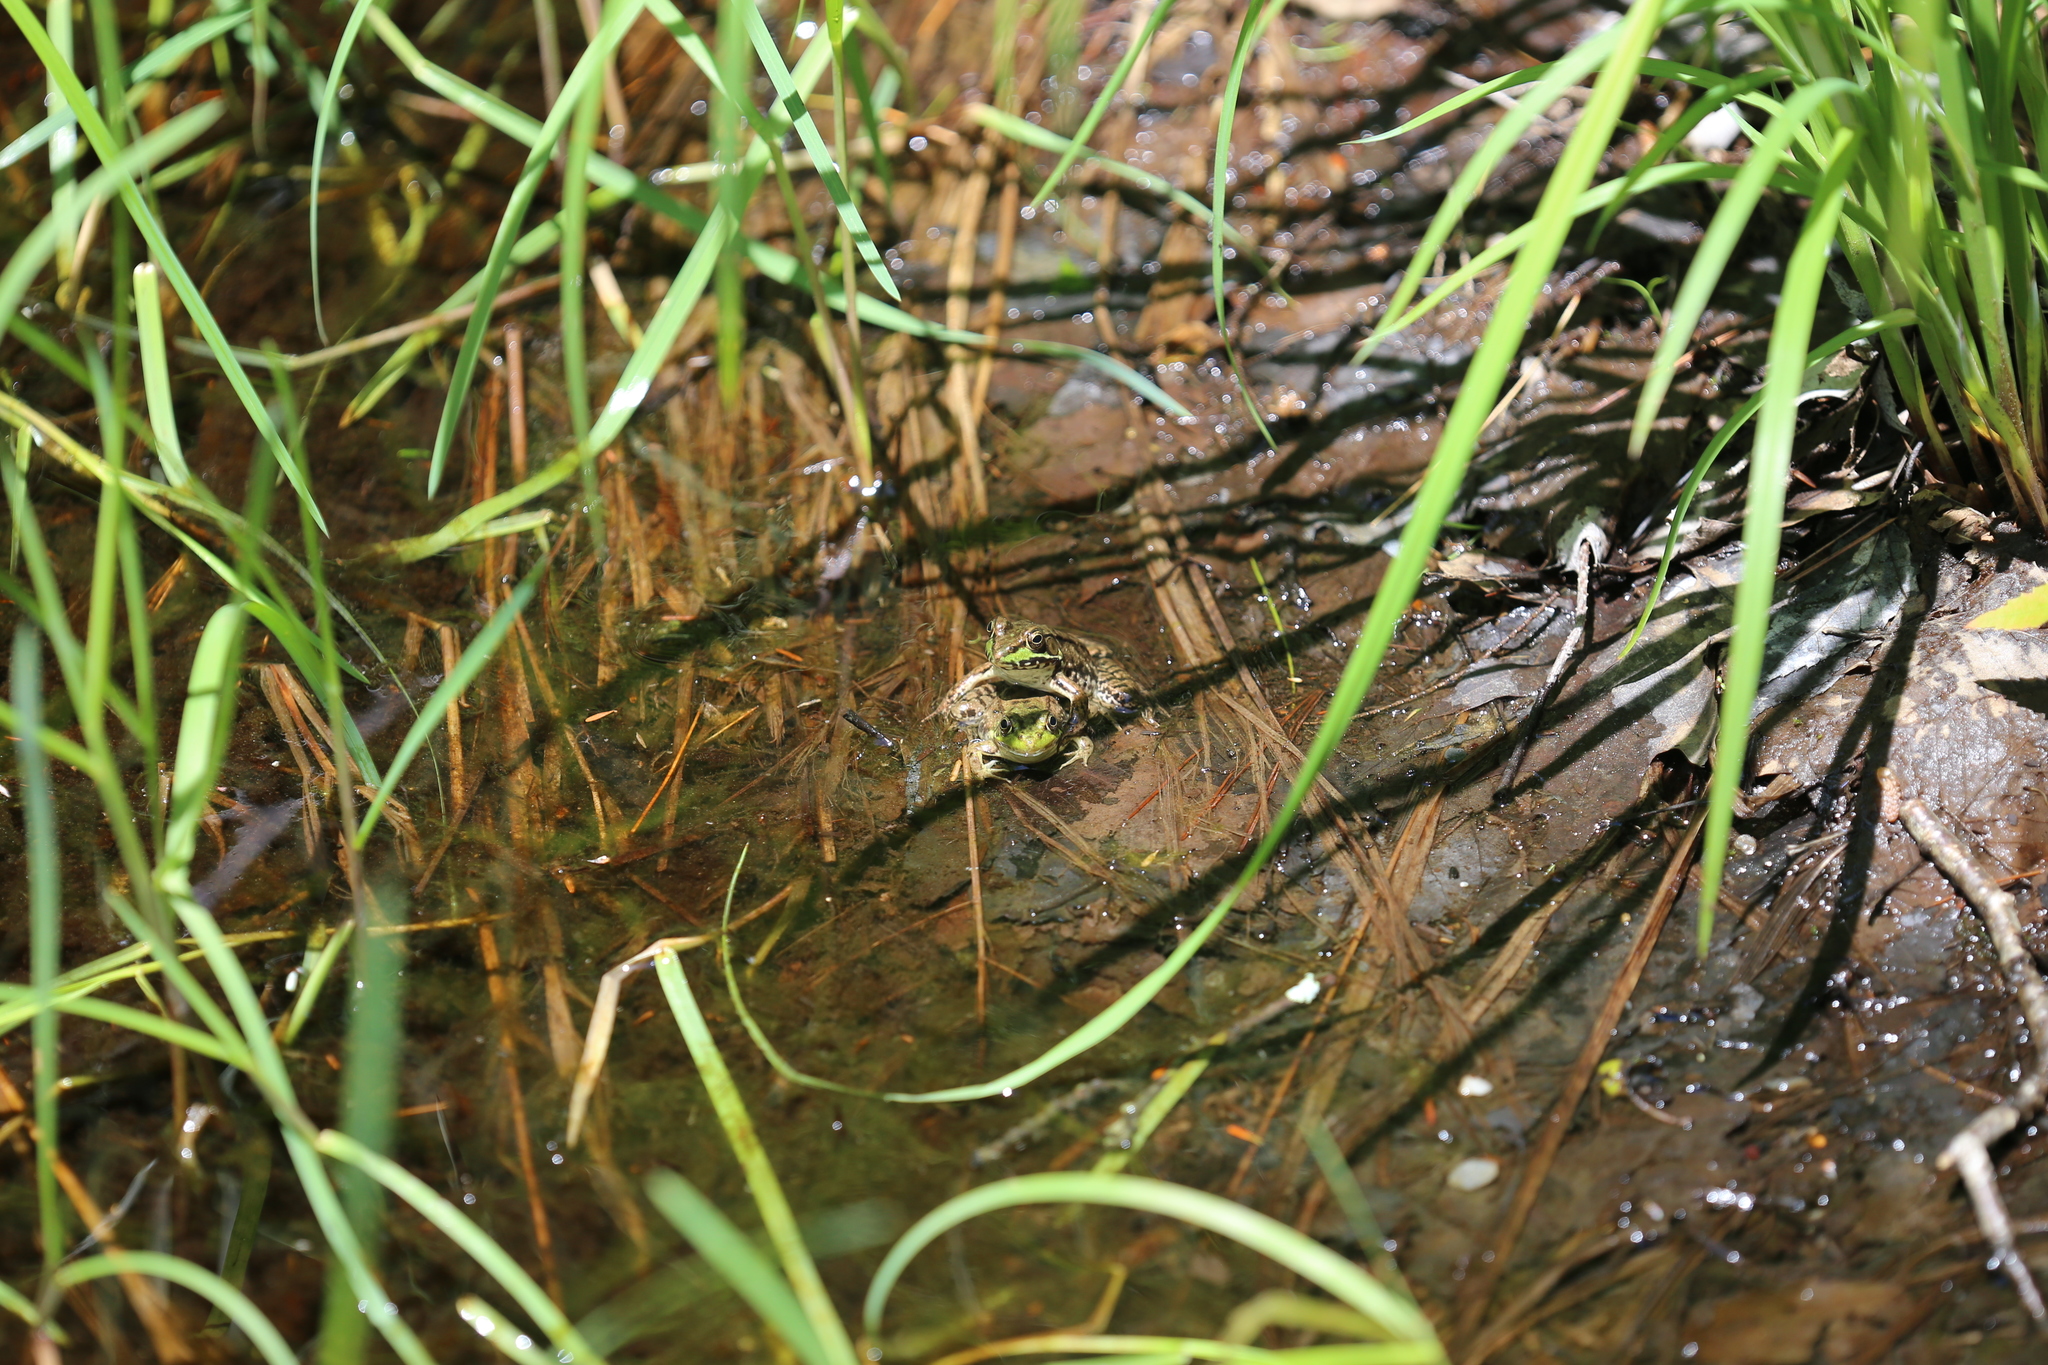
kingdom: Animalia
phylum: Chordata
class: Amphibia
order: Anura
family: Ranidae
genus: Lithobates
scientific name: Lithobates clamitans
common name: Green frog
